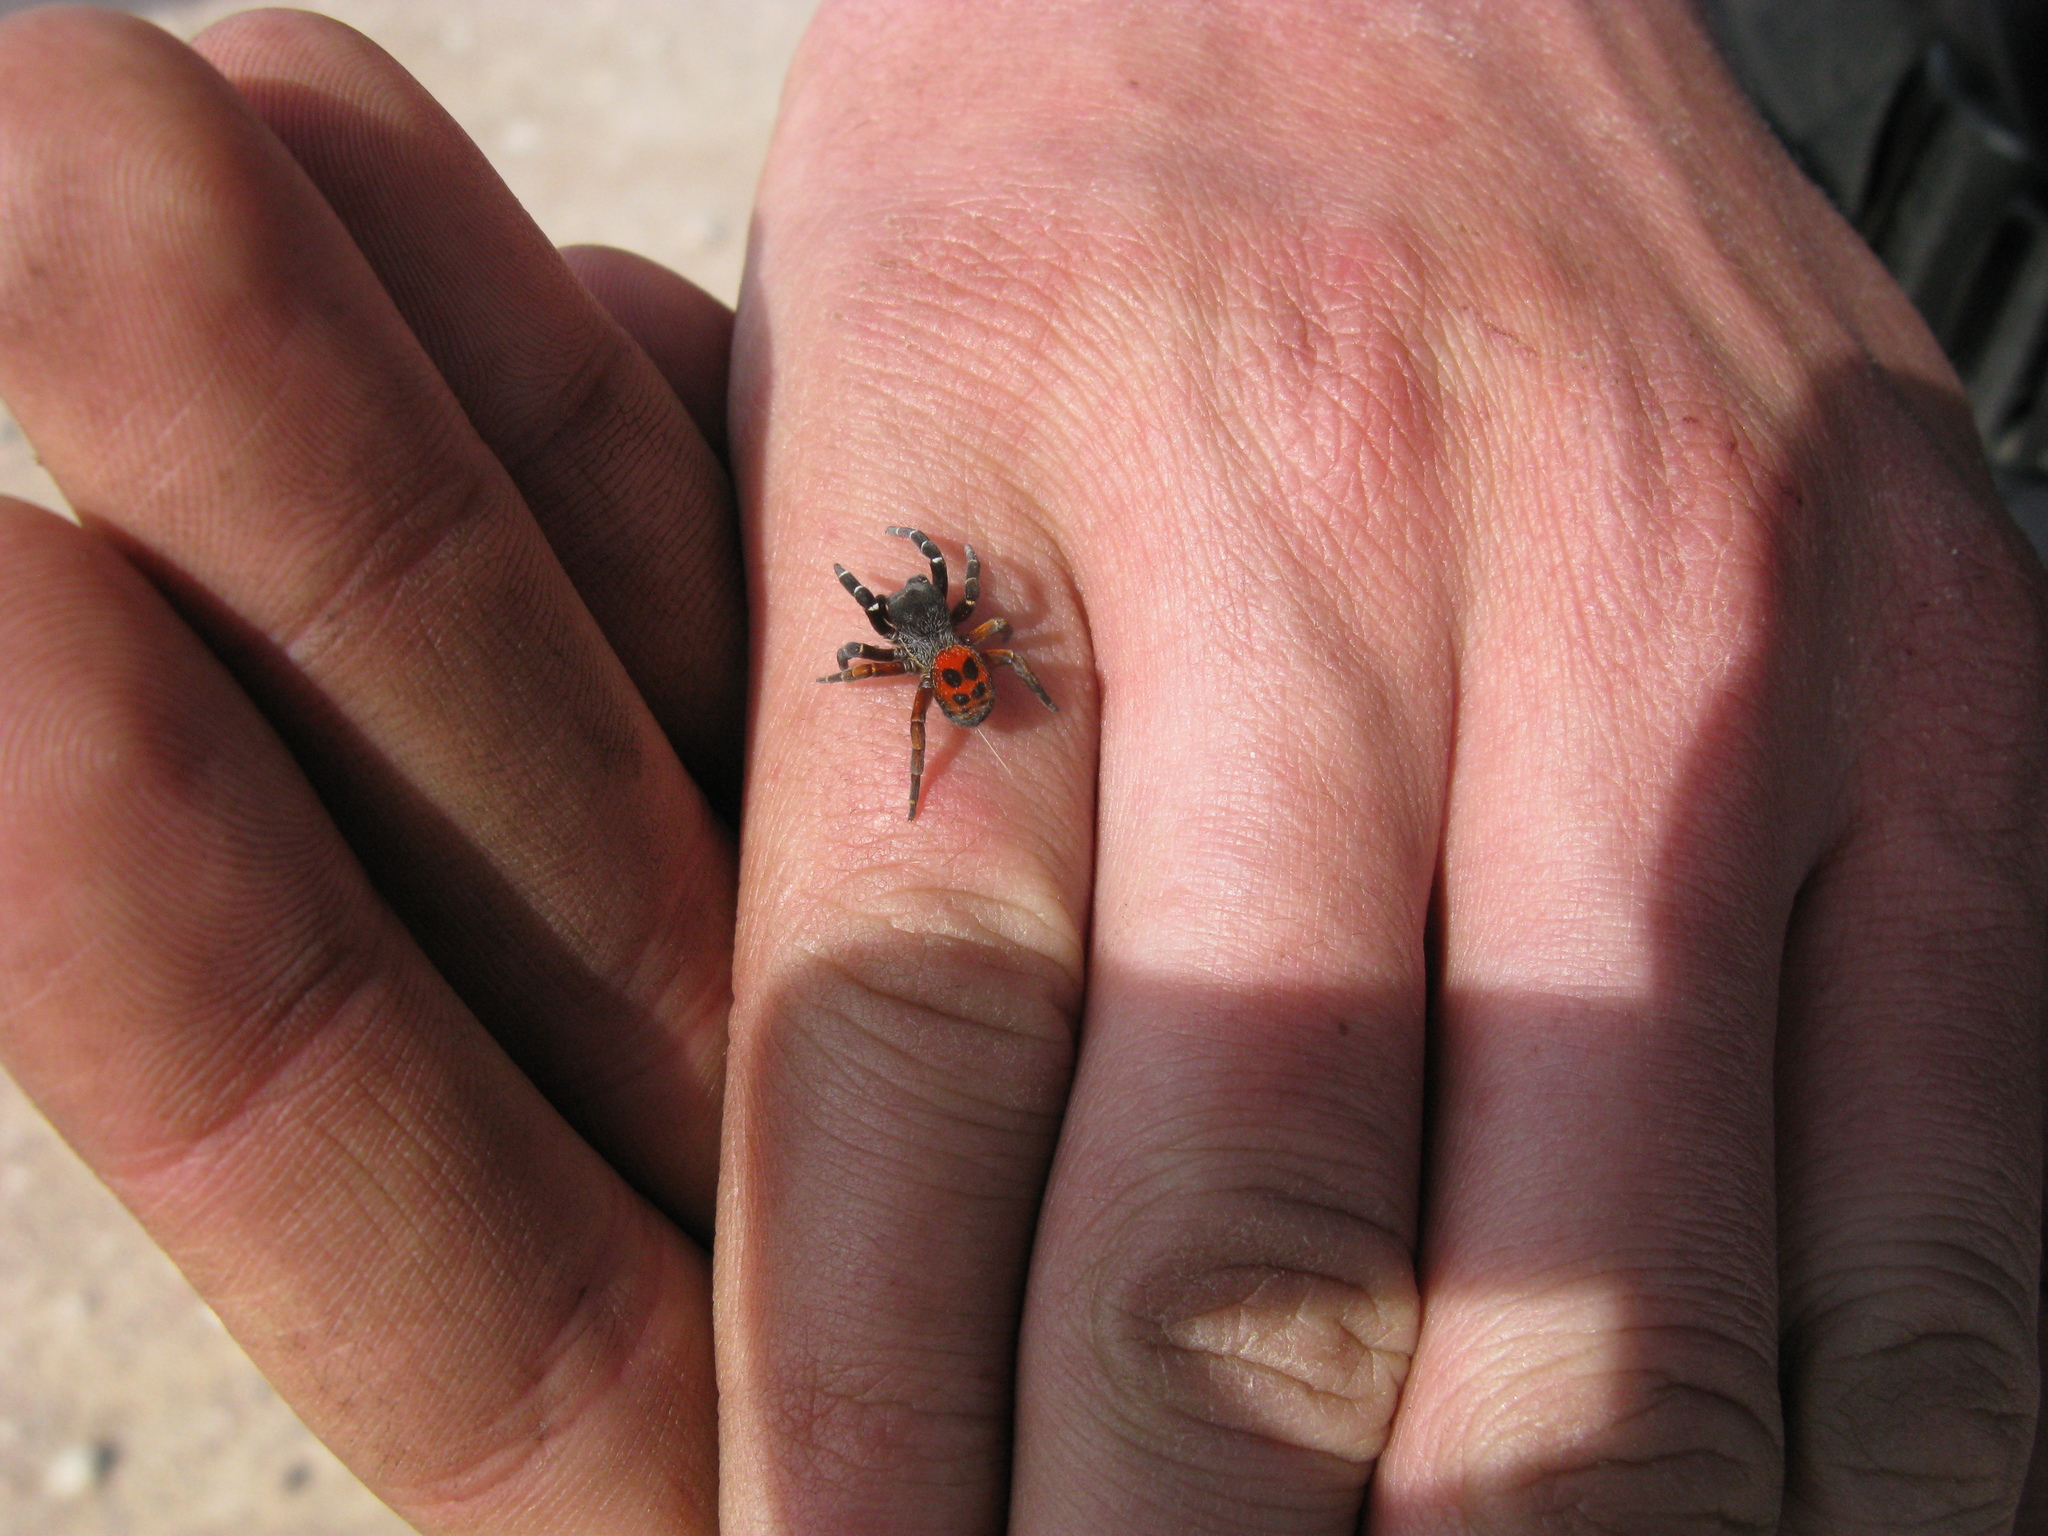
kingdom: Animalia
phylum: Arthropoda
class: Arachnida
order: Araneae
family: Eresidae
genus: Eresus
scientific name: Eresus kollari
